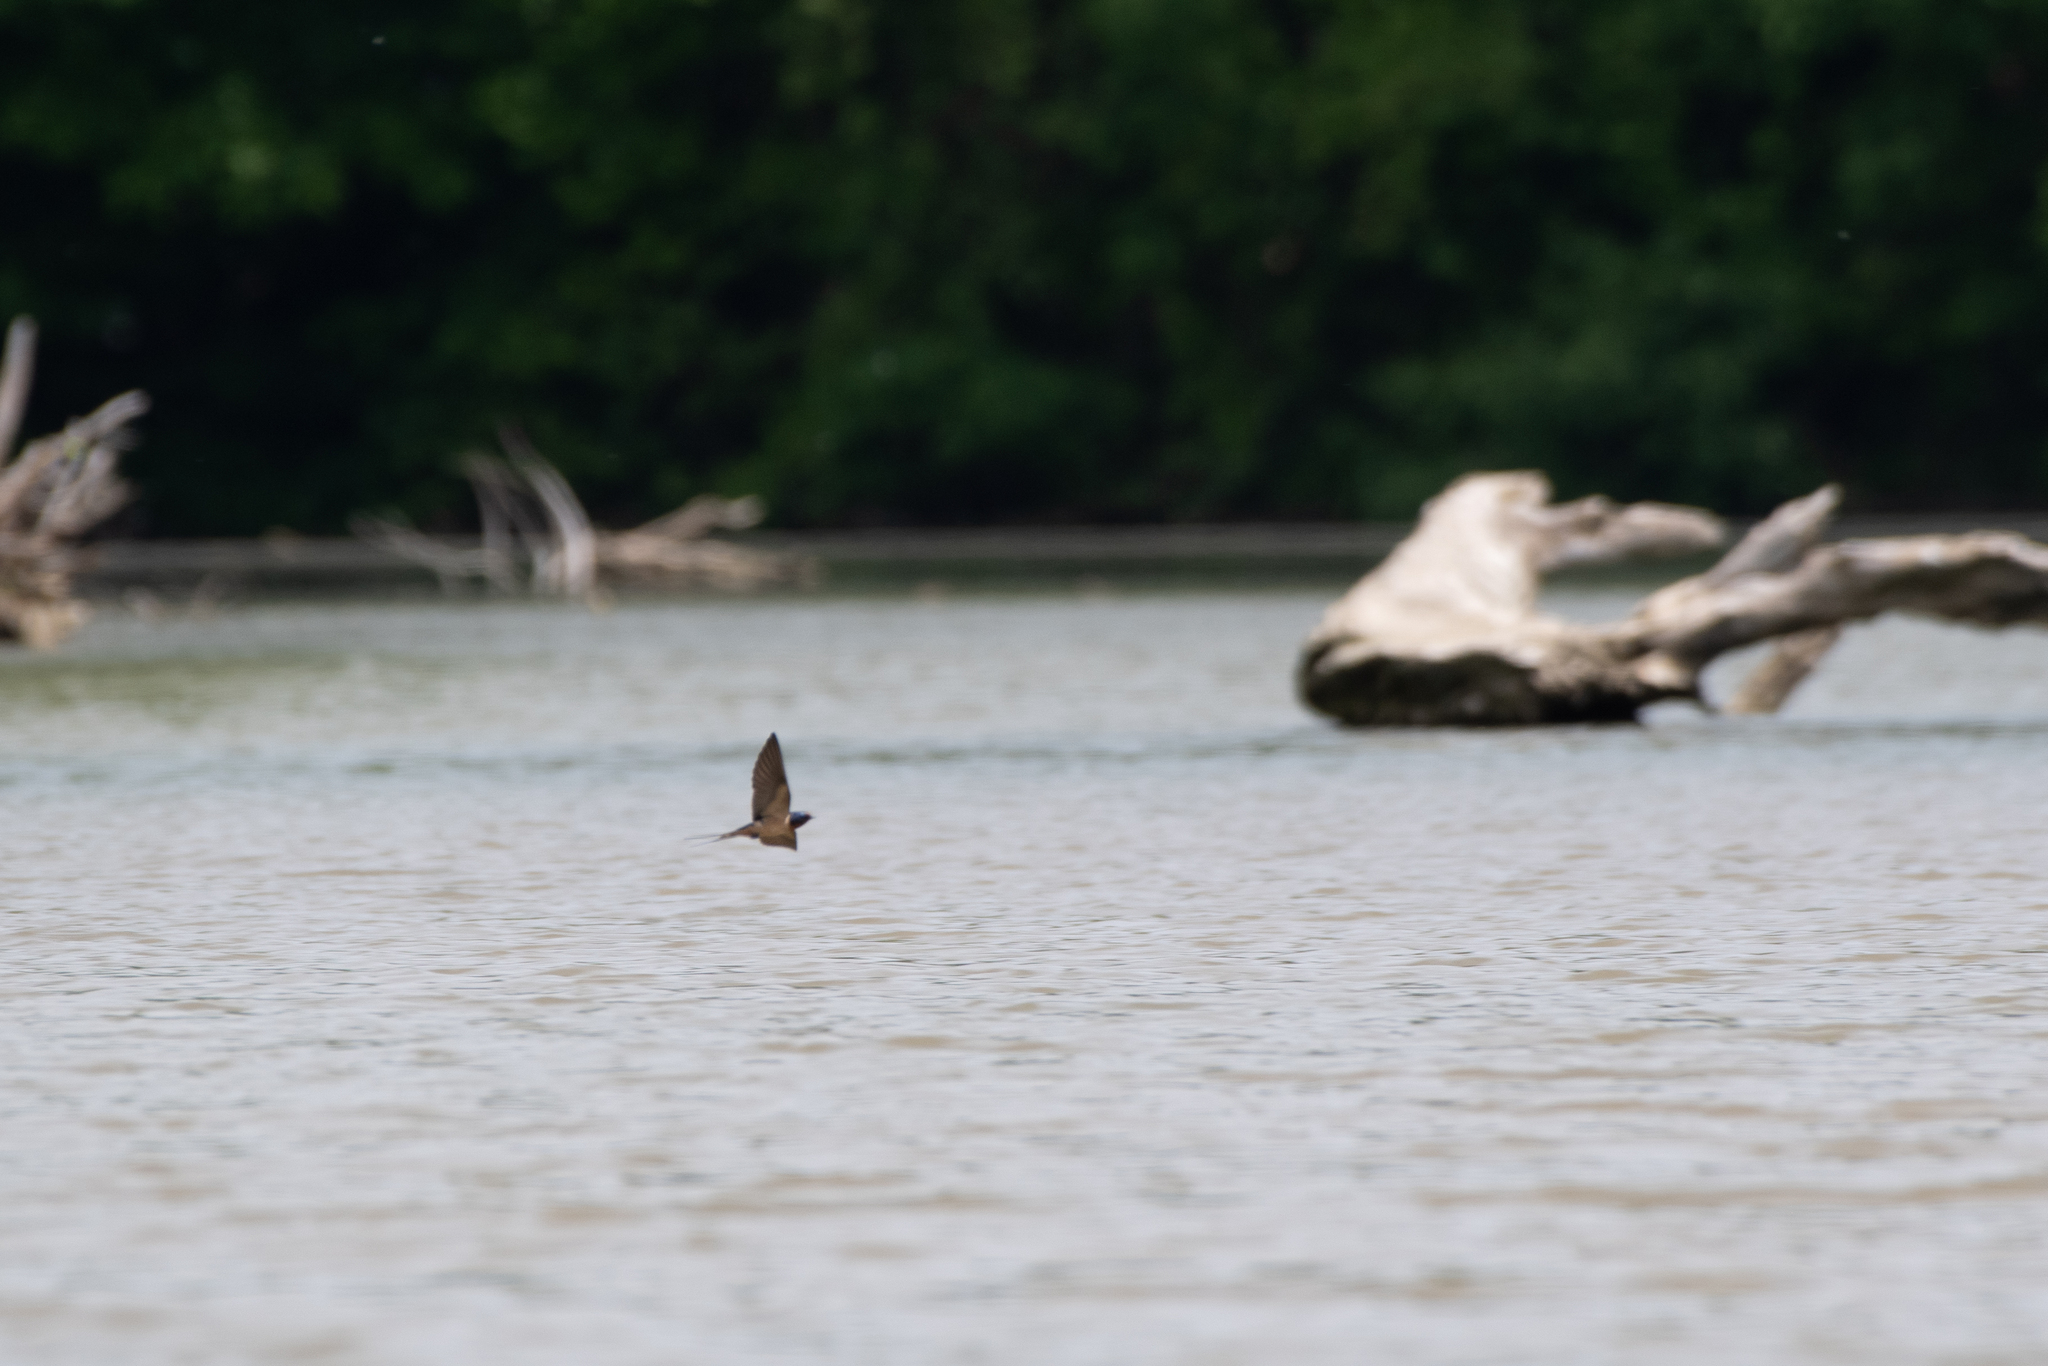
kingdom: Animalia
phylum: Chordata
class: Aves
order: Passeriformes
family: Hirundinidae
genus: Hirundo
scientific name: Hirundo rustica
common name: Barn swallow
